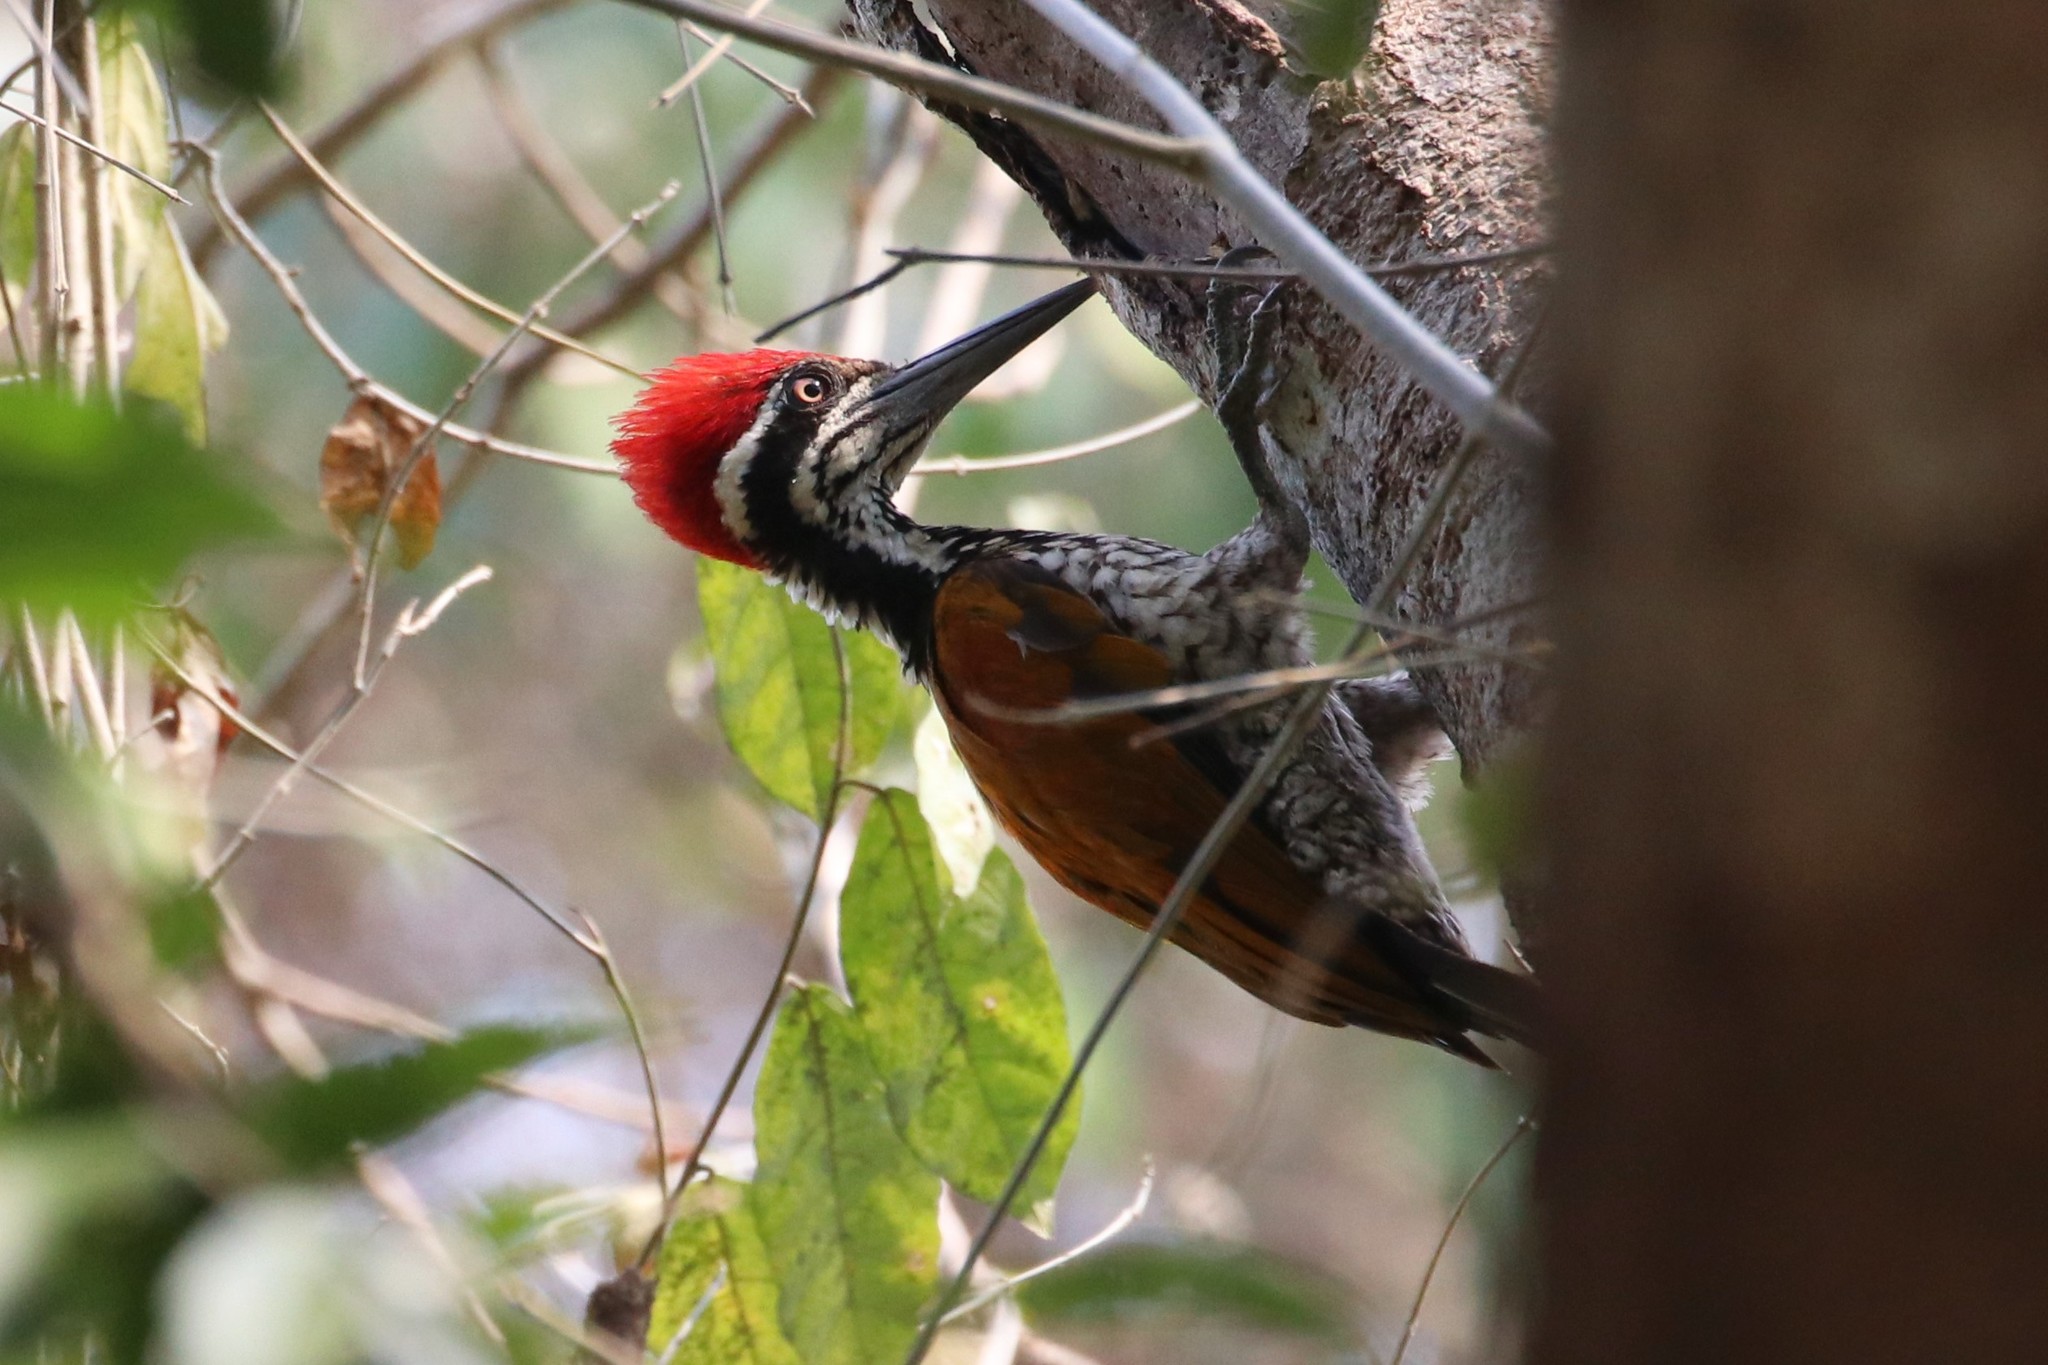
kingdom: Animalia
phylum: Chordata
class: Aves
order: Piciformes
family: Picidae
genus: Chrysocolaptes
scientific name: Chrysocolaptes guttacristatus
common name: Greater flameback
